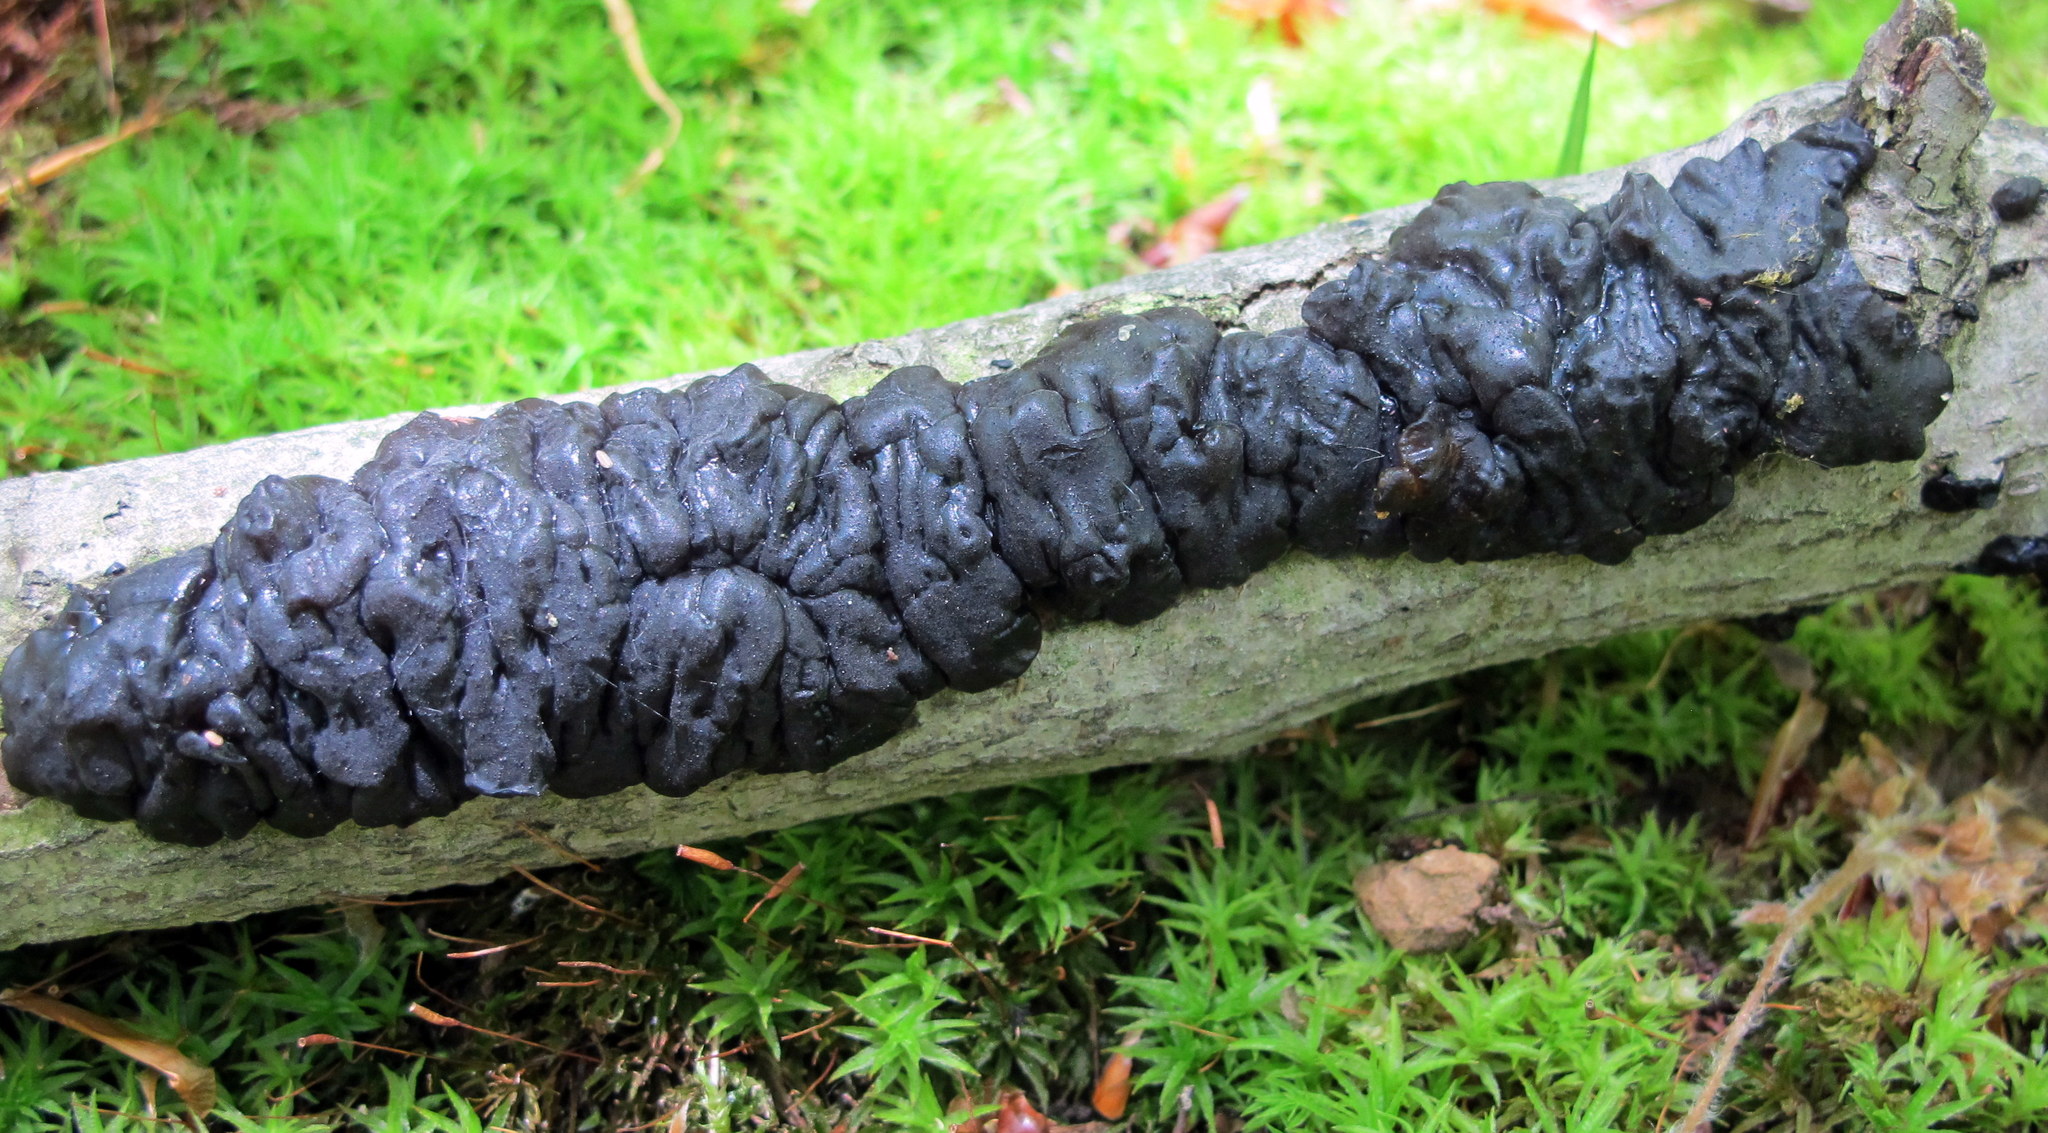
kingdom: Fungi
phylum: Basidiomycota
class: Agaricomycetes
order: Auriculariales
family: Auriculariaceae
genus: Exidia
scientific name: Exidia glandulosa
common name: Witches' butter
